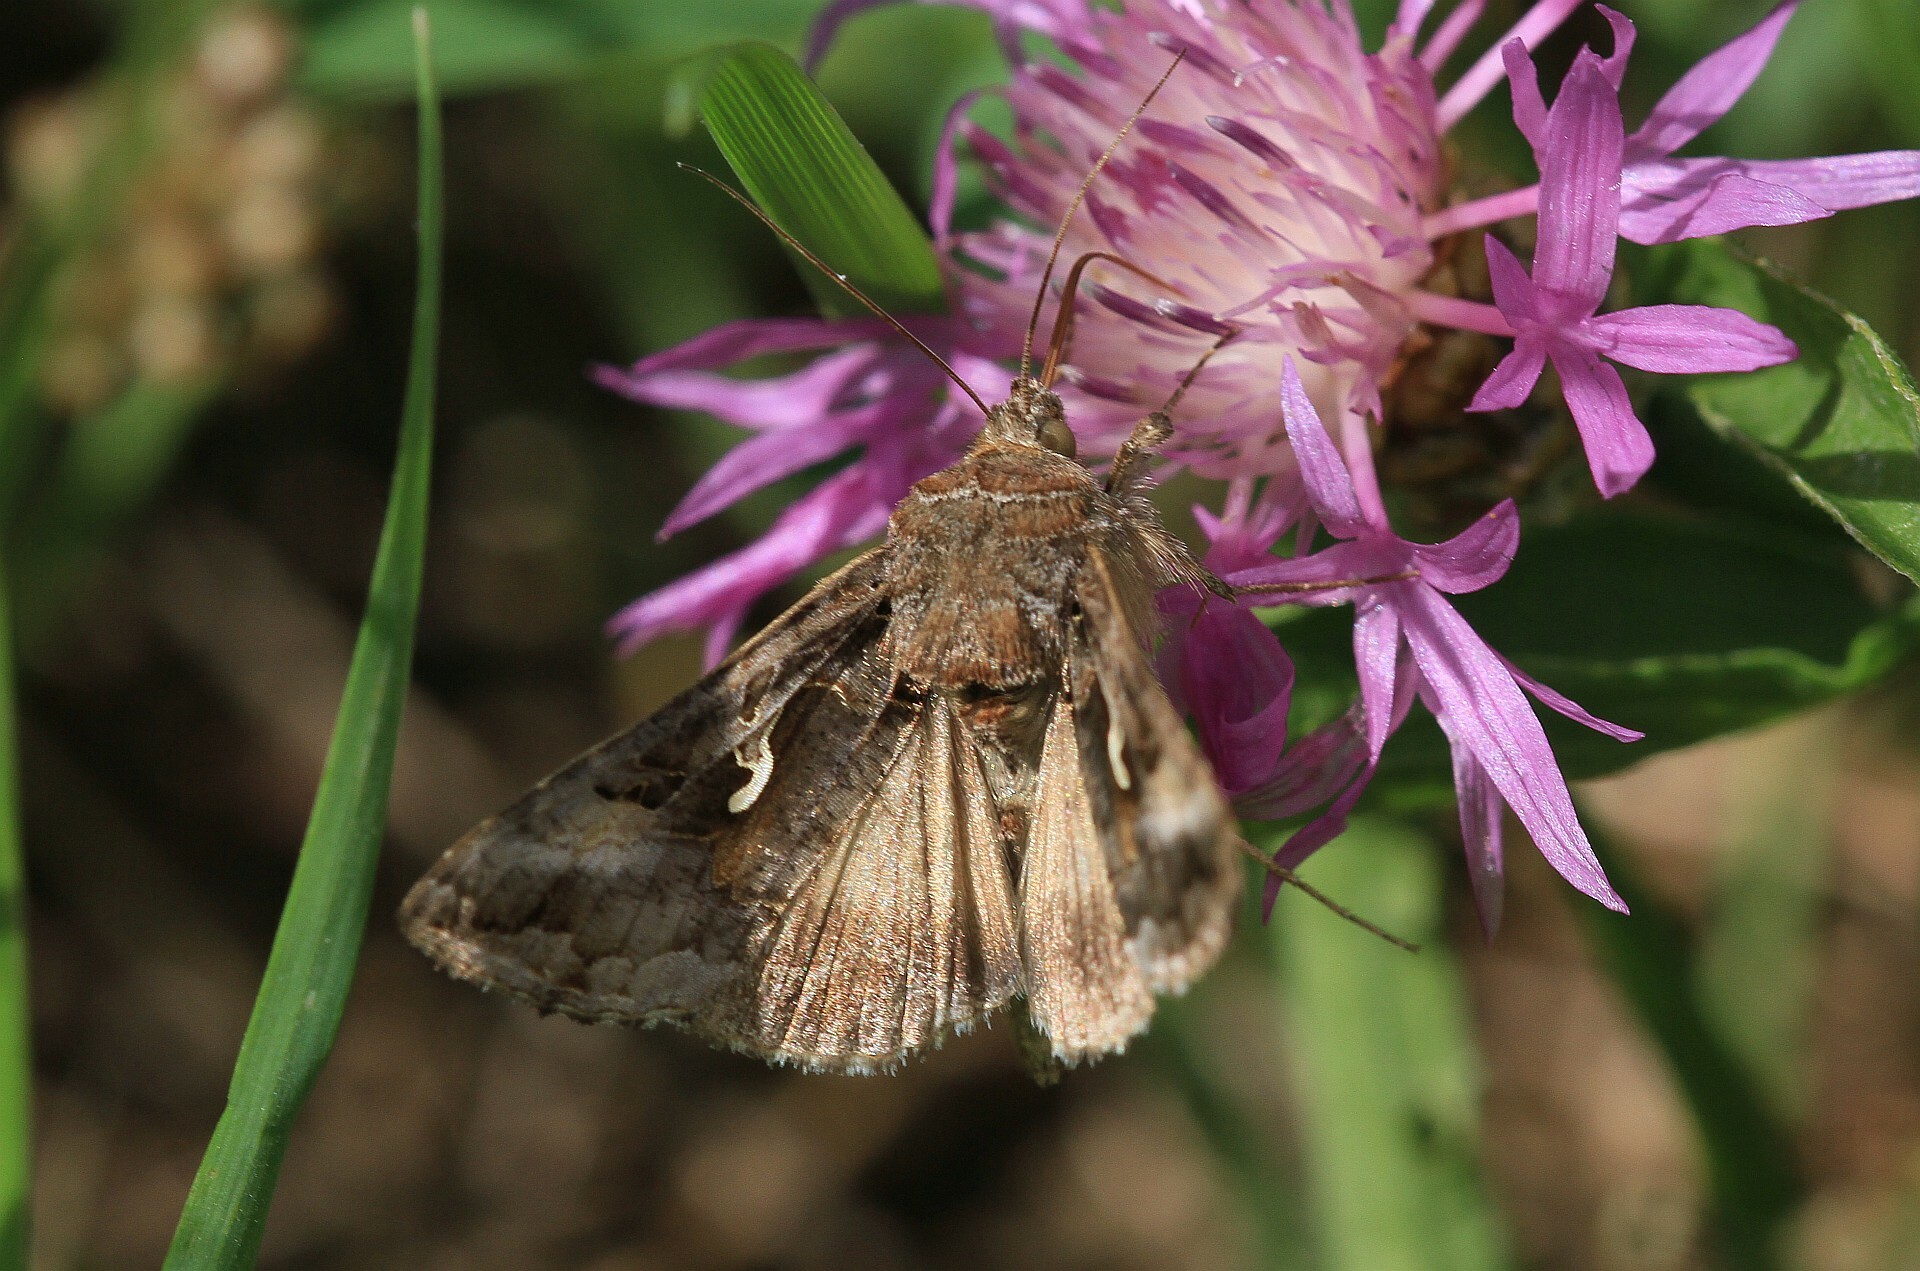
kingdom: Animalia
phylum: Arthropoda
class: Insecta
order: Lepidoptera
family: Noctuidae
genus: Autographa
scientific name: Autographa gamma
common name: Silver y
